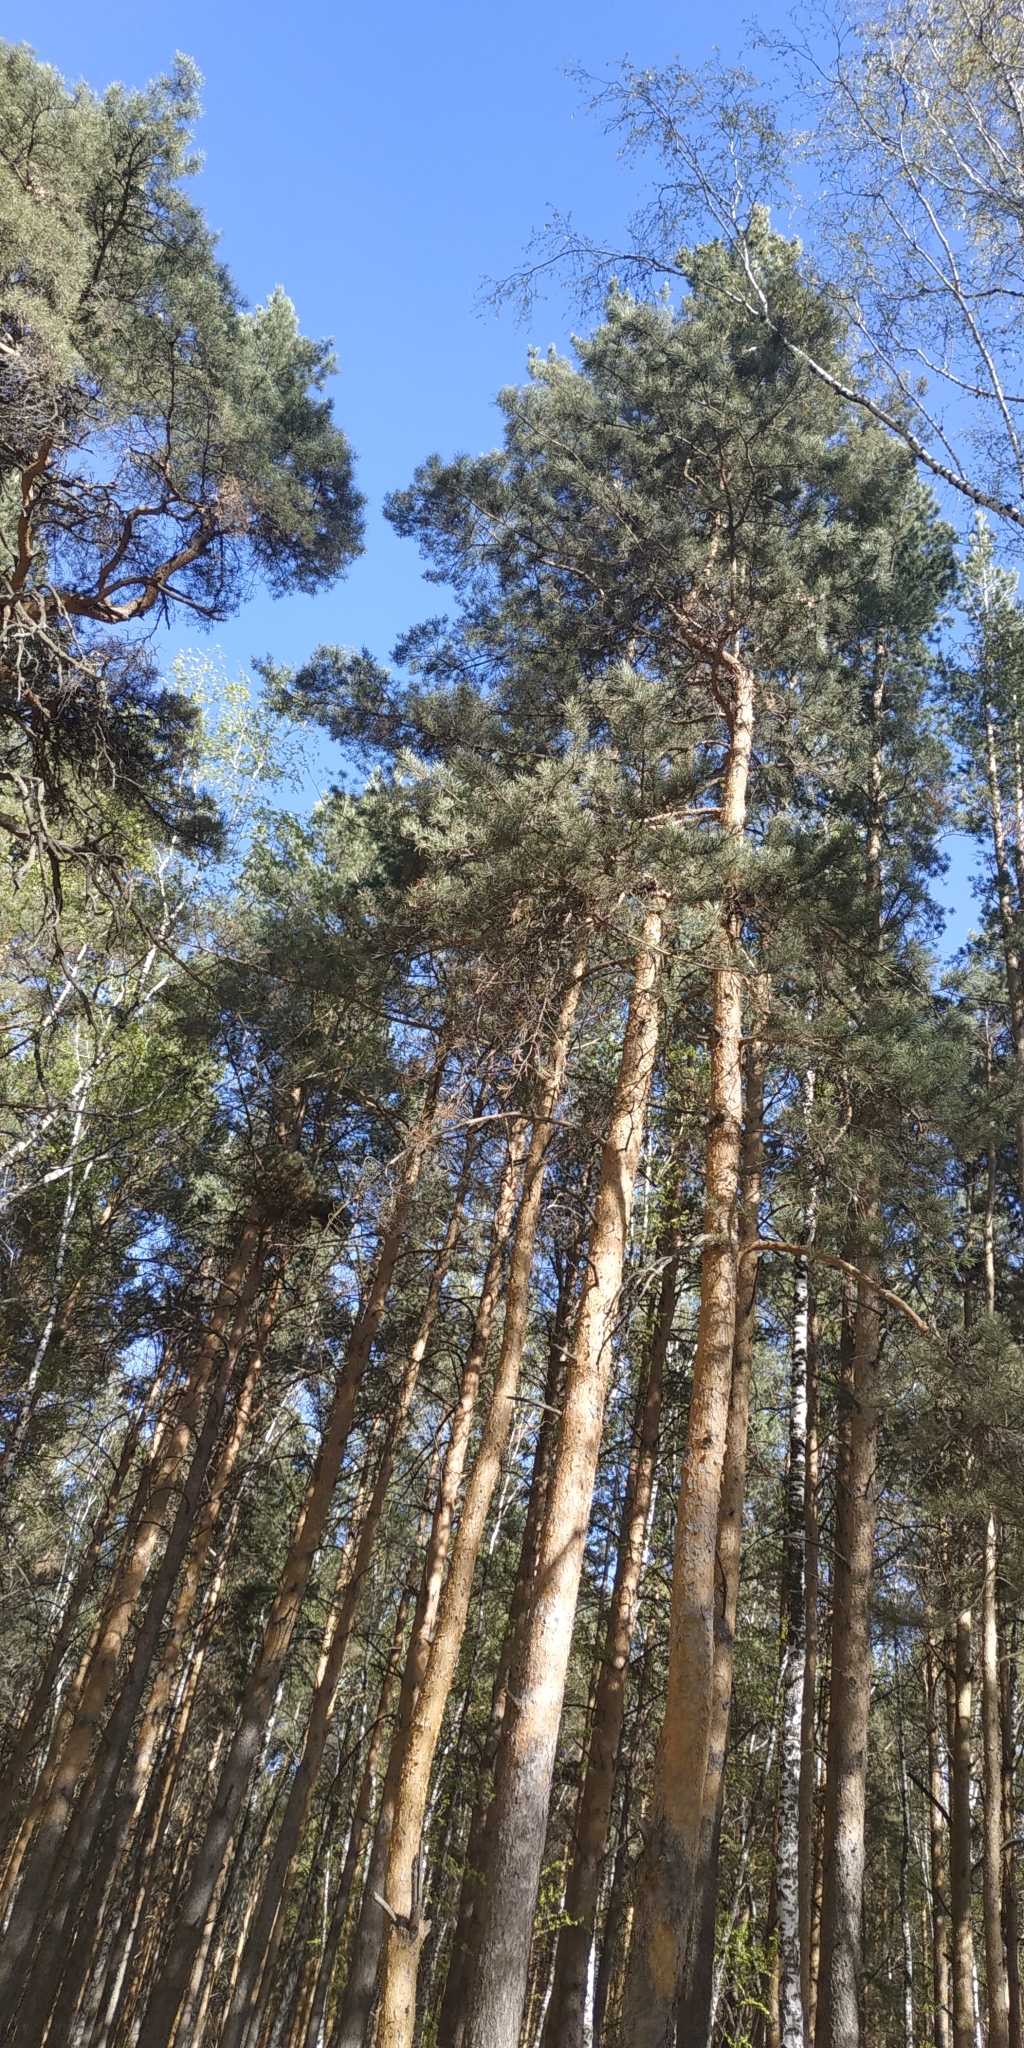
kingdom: Plantae
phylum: Tracheophyta
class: Pinopsida
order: Pinales
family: Pinaceae
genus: Pinus
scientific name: Pinus sylvestris
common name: Scots pine
